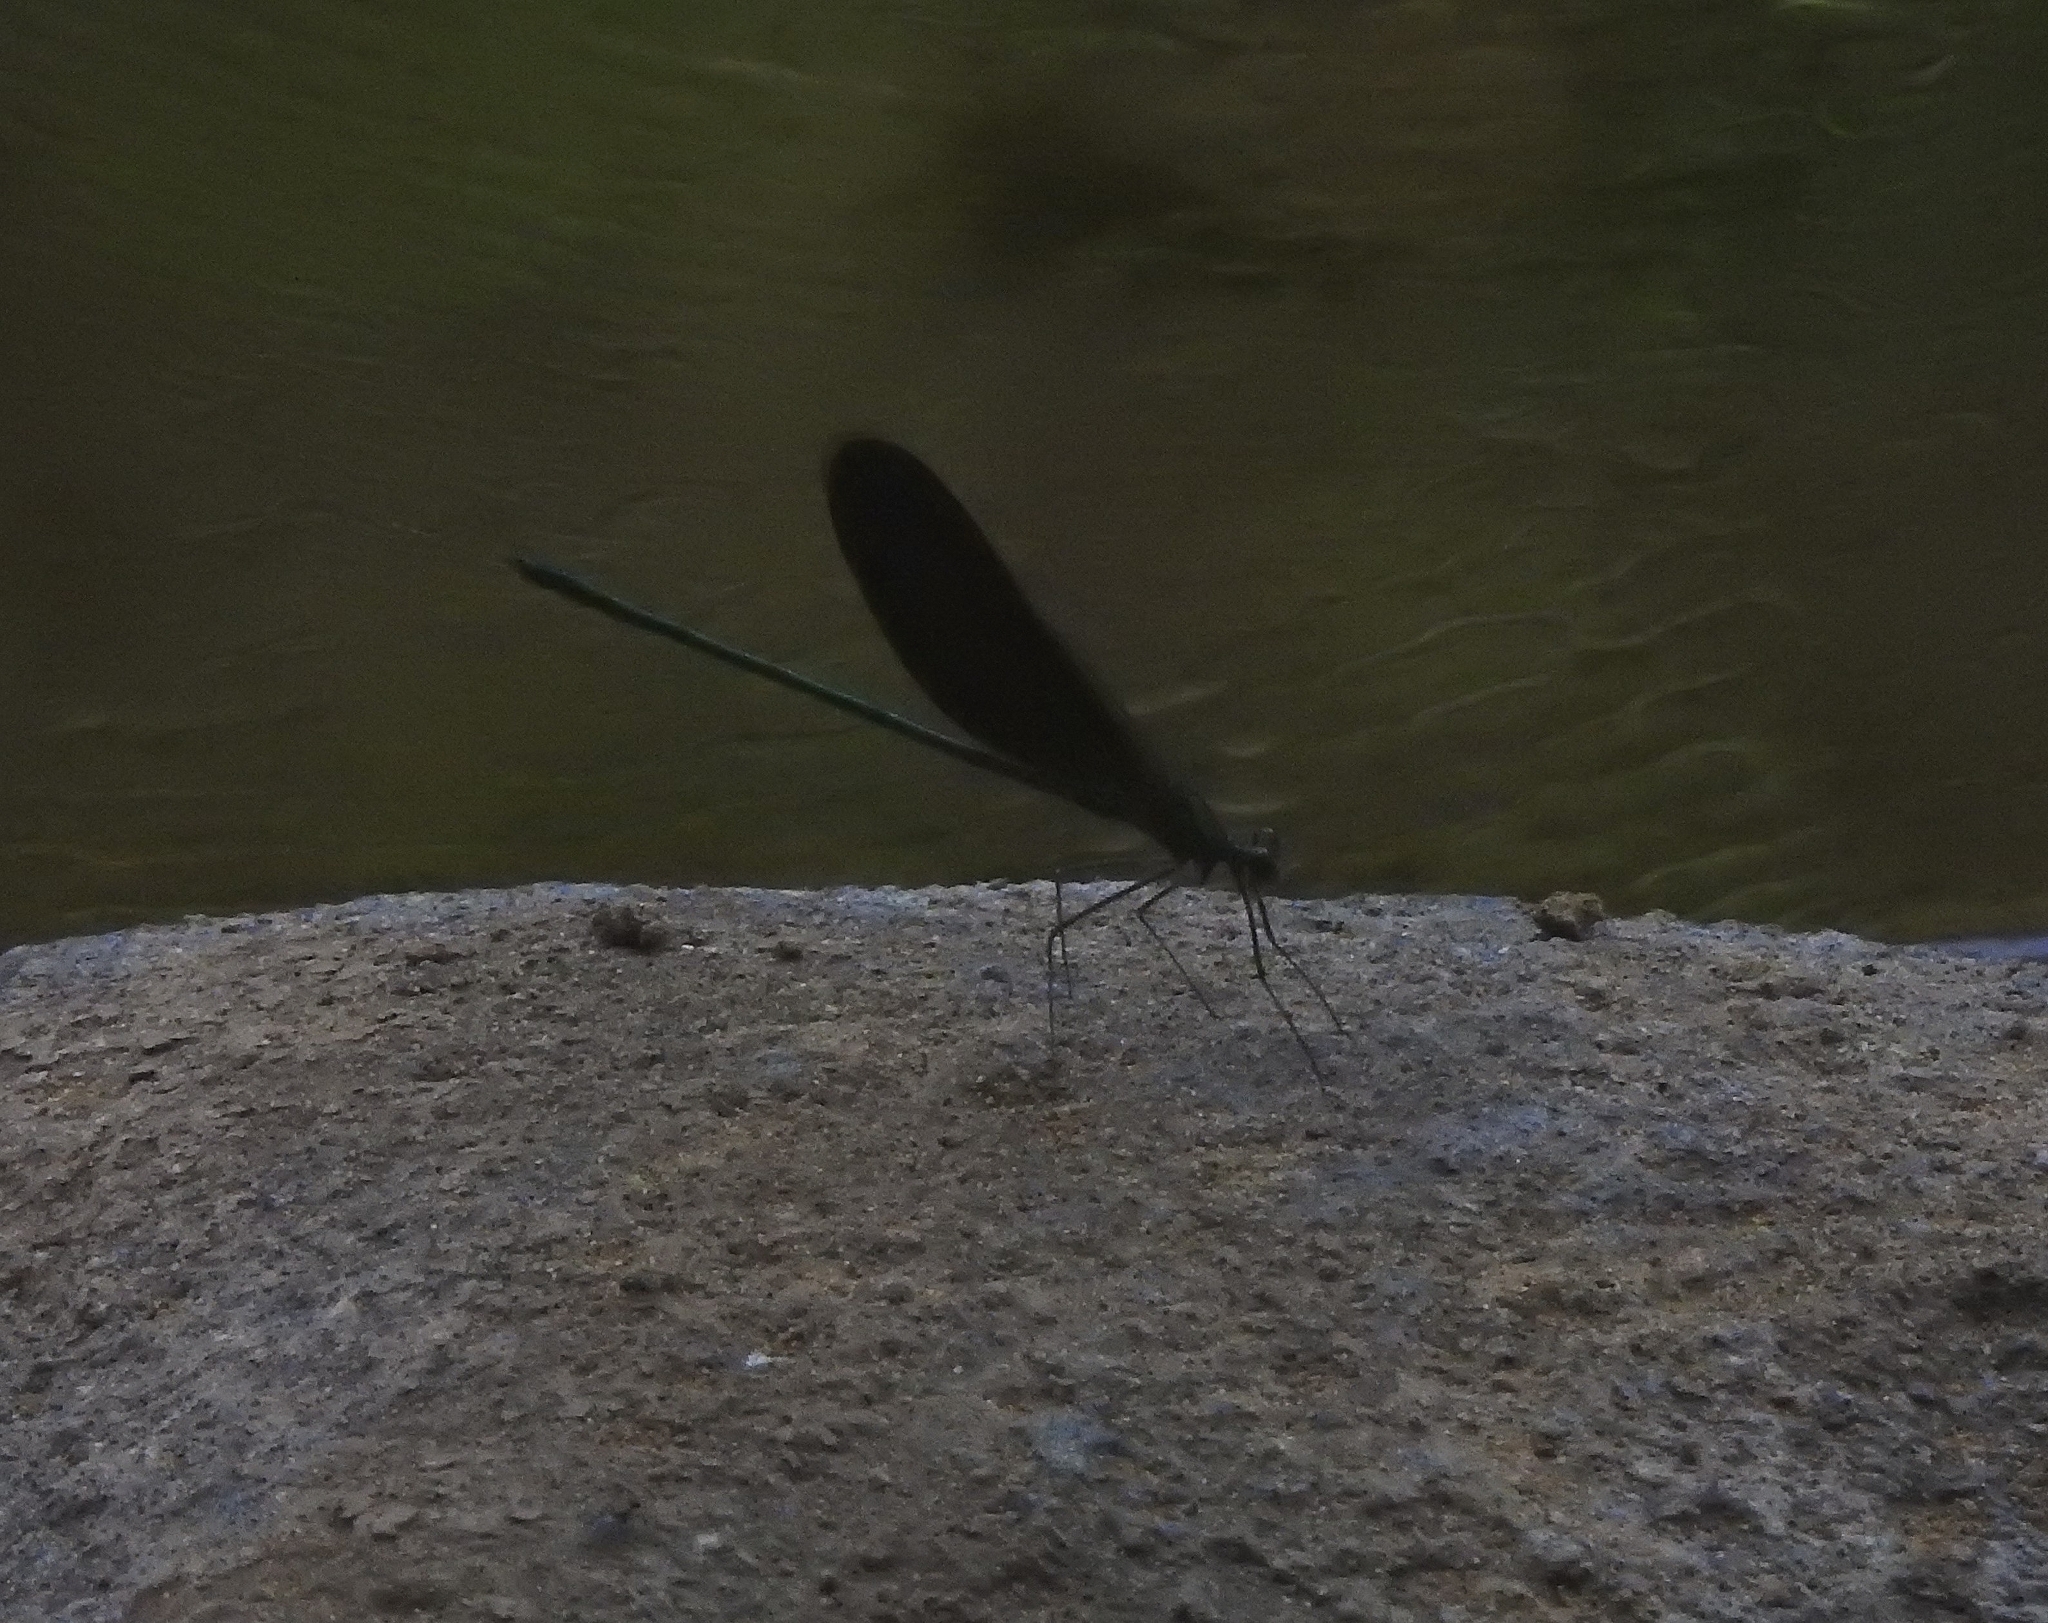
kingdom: Animalia
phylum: Arthropoda
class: Insecta
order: Odonata
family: Calopterygidae
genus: Neurobasis
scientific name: Neurobasis chinensis
